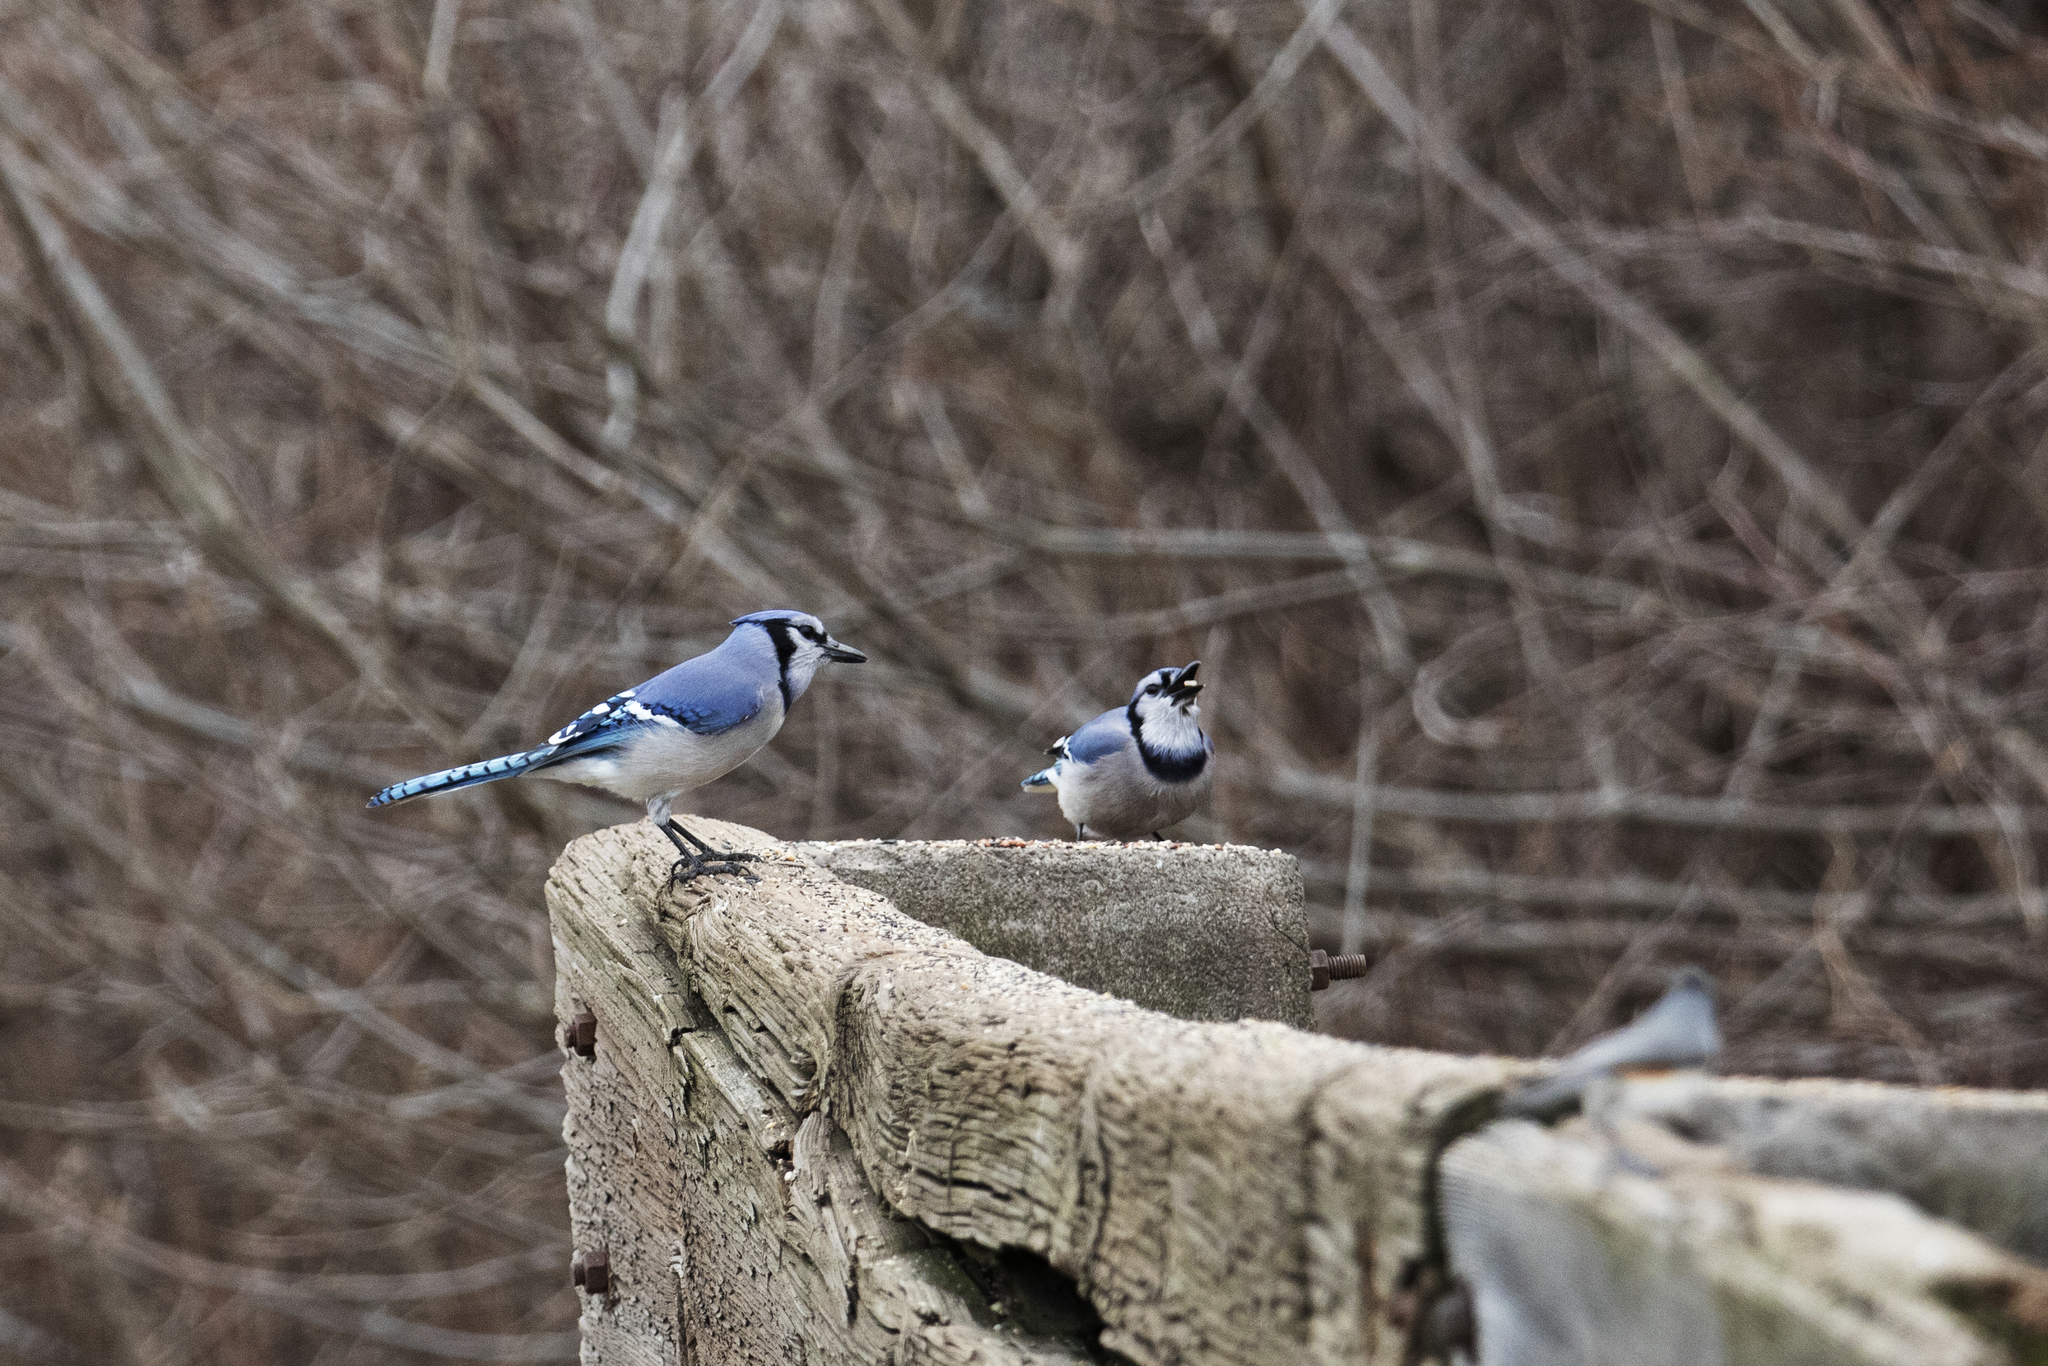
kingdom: Animalia
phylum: Chordata
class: Aves
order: Passeriformes
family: Corvidae
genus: Cyanocitta
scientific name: Cyanocitta cristata
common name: Blue jay
